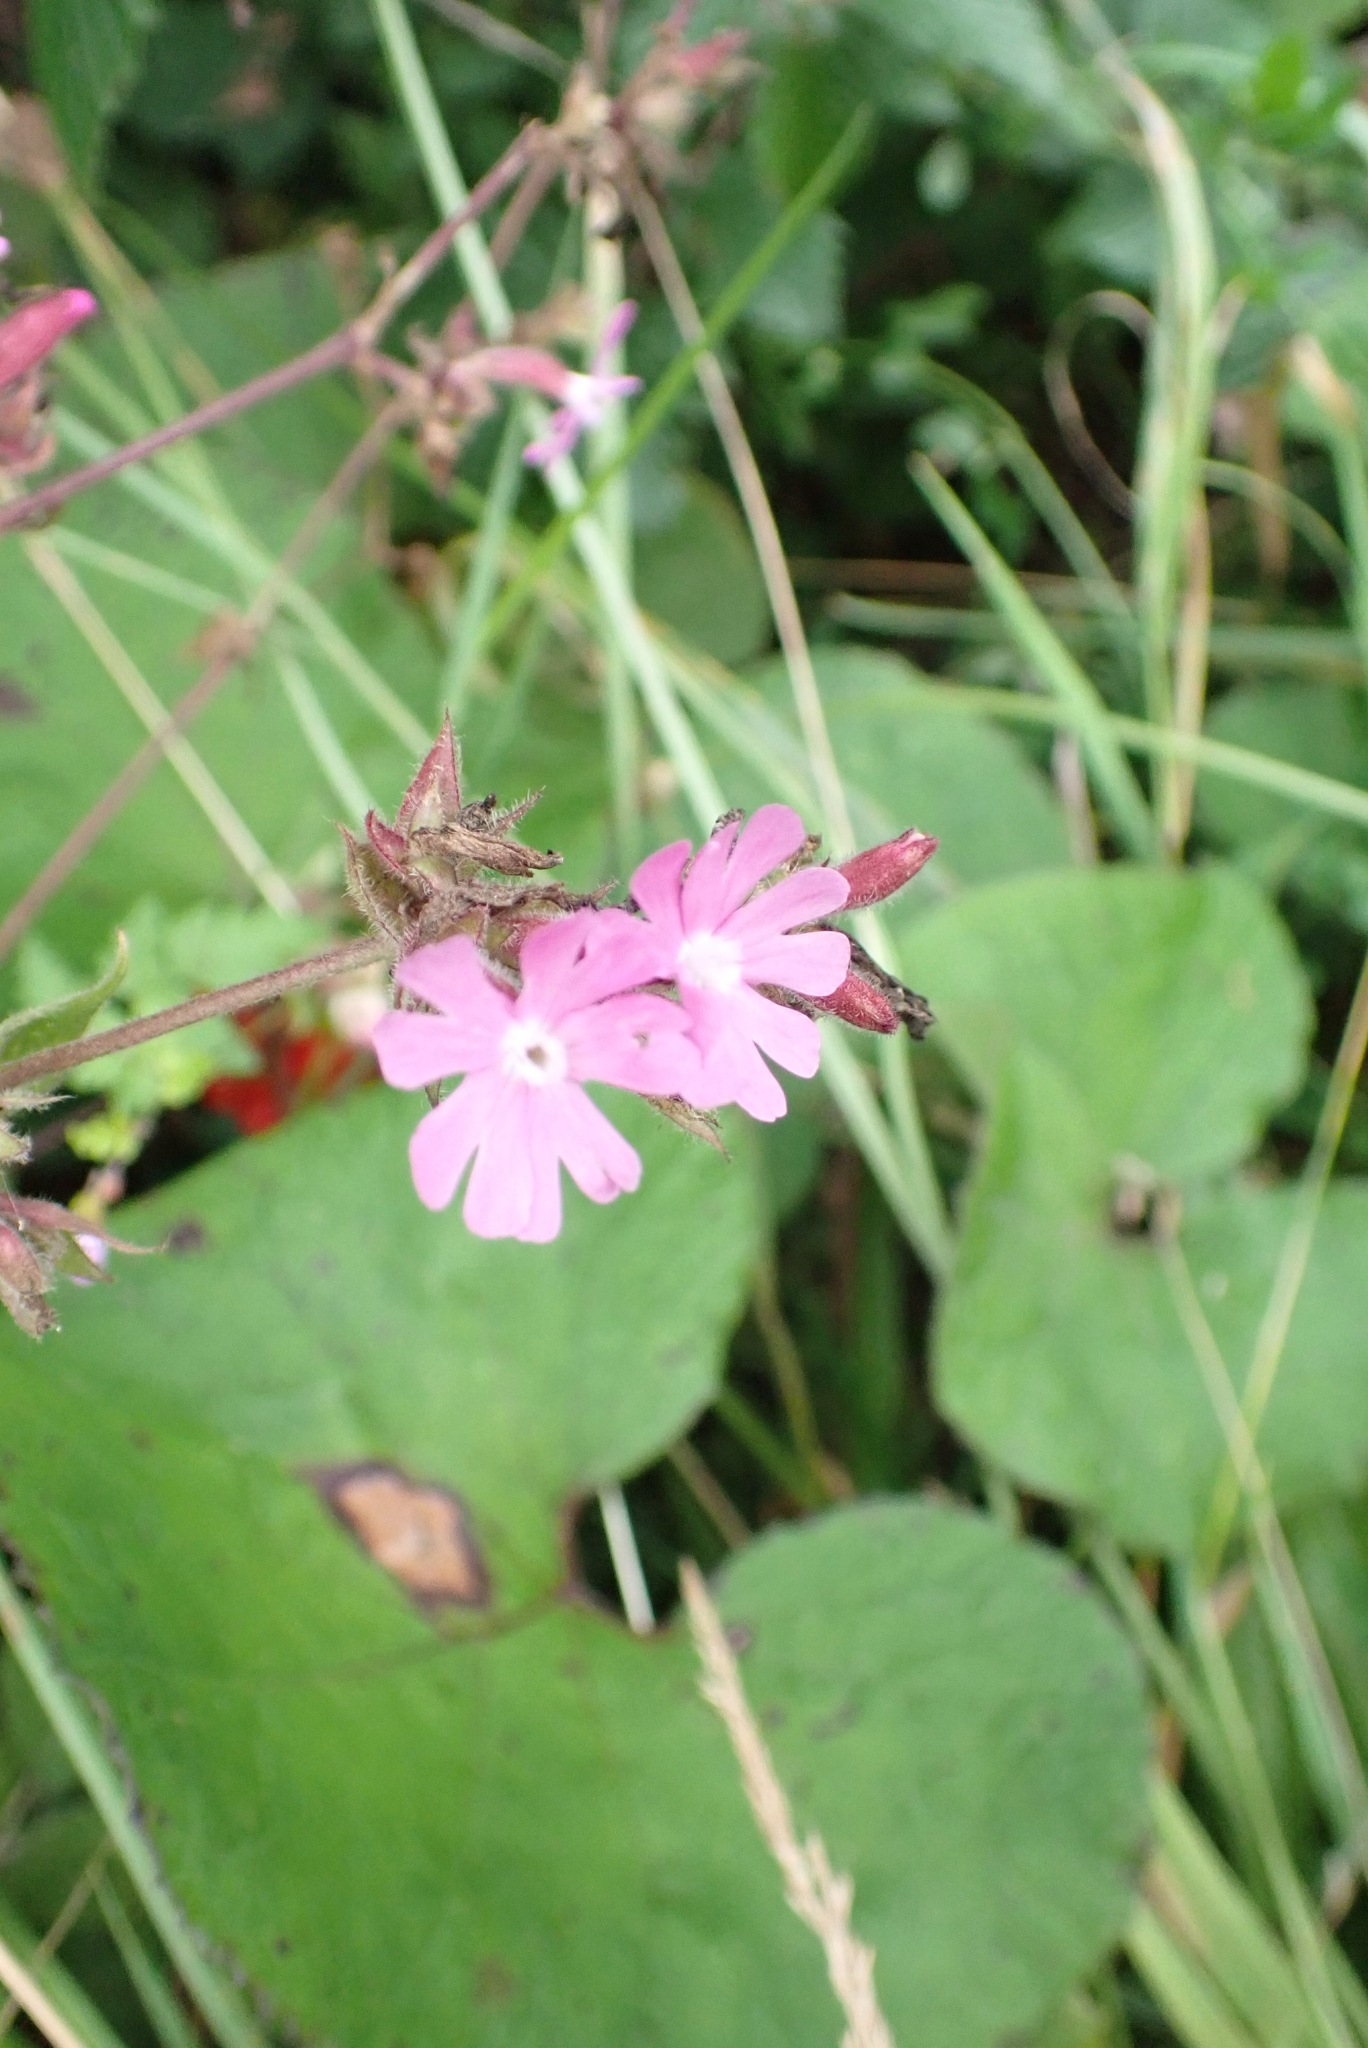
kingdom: Plantae
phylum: Tracheophyta
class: Magnoliopsida
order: Caryophyllales
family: Caryophyllaceae
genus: Silene
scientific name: Silene dioica
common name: Red campion
